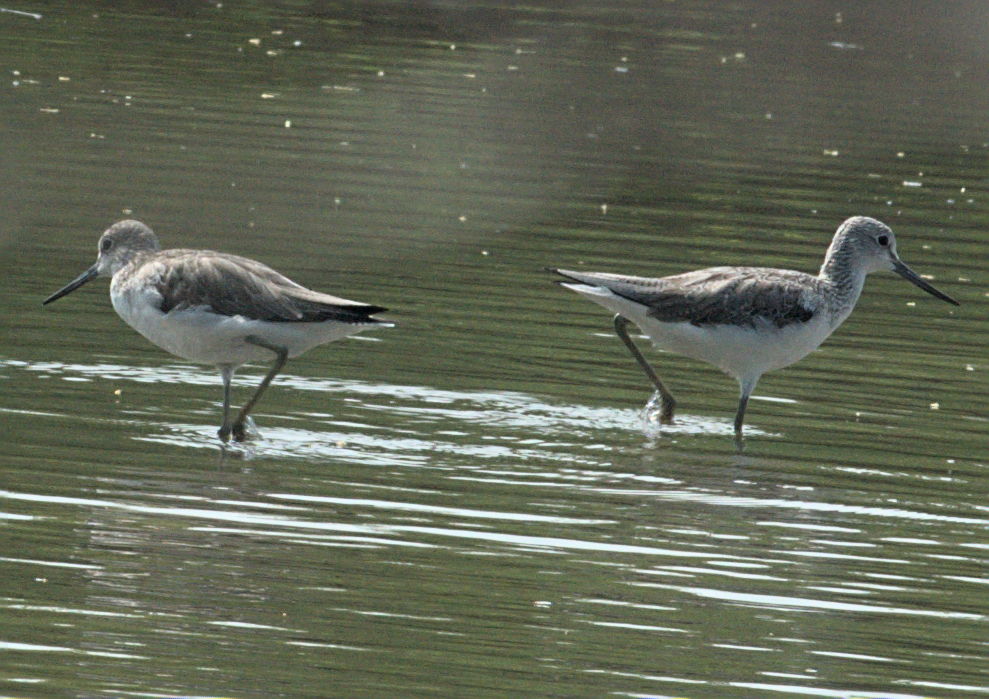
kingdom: Animalia
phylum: Chordata
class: Aves
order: Charadriiformes
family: Scolopacidae
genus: Tringa
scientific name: Tringa nebularia
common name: Common greenshank
